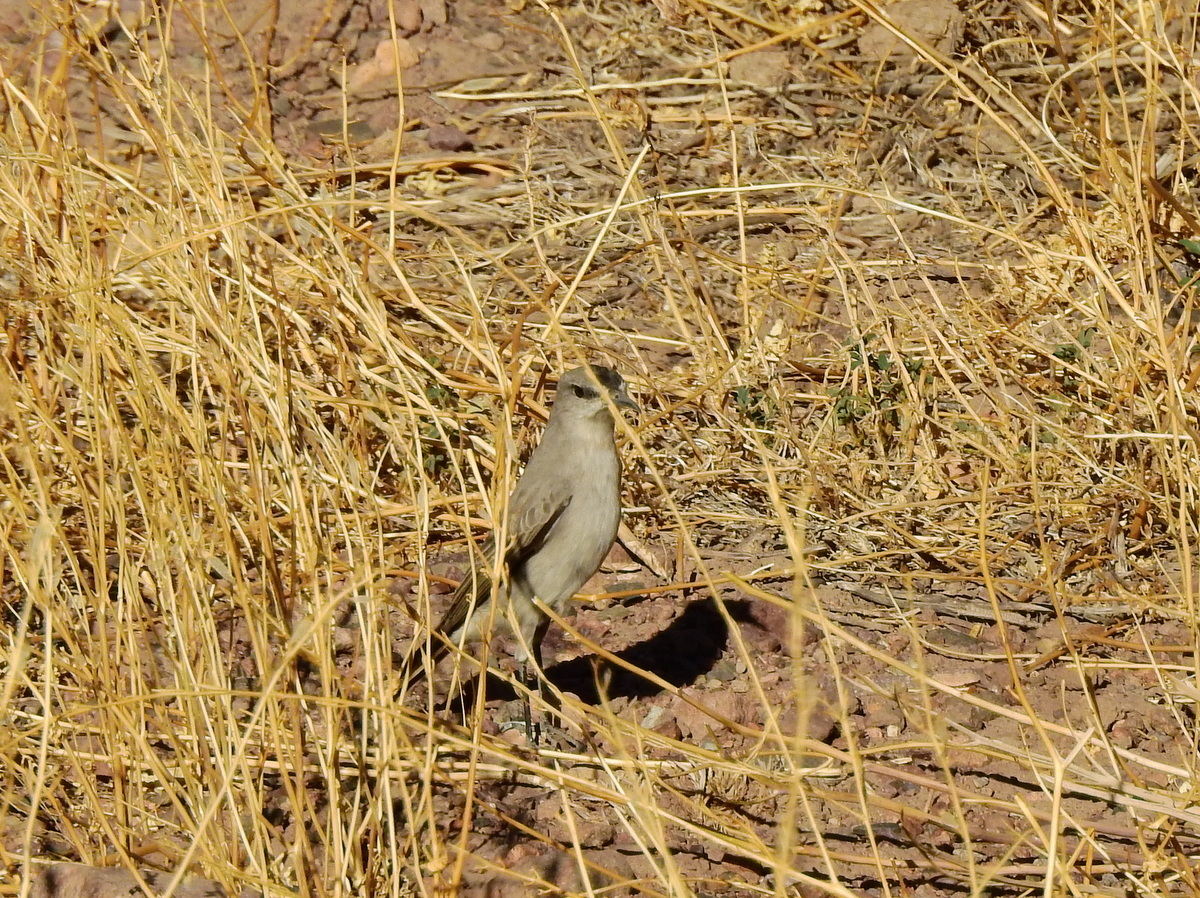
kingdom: Animalia
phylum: Chordata
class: Aves
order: Passeriformes
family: Tyrannidae
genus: Muscisaxicola
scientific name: Muscisaxicola frontalis
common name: Black-fronted ground tyrant
